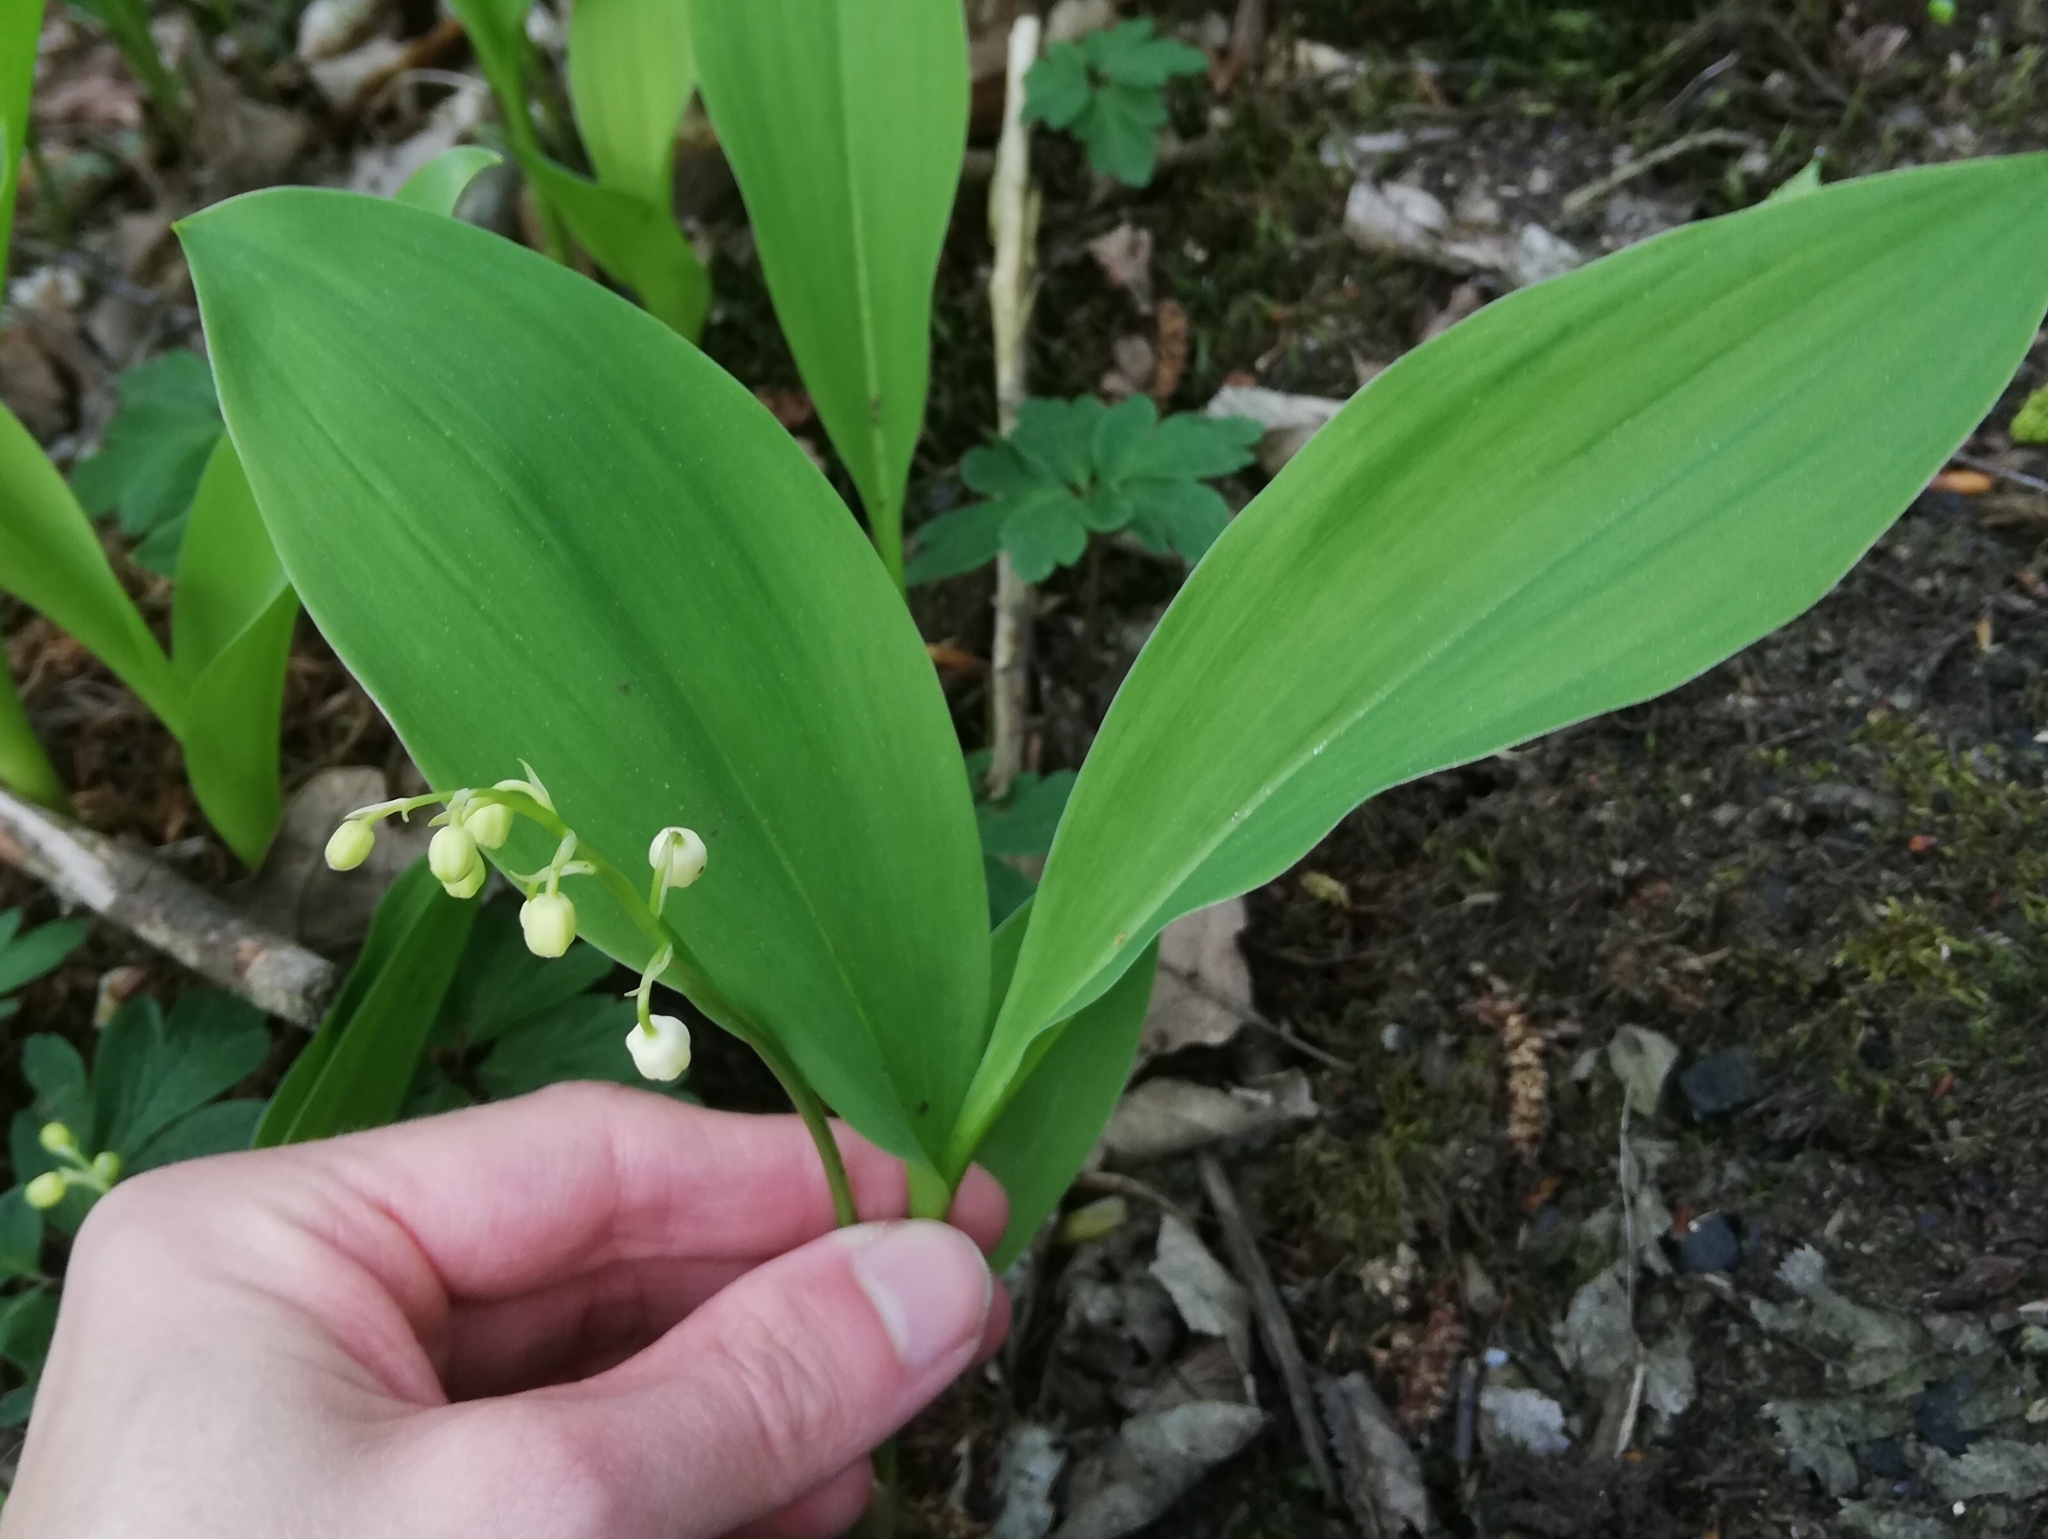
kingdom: Plantae
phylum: Tracheophyta
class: Liliopsida
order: Asparagales
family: Asparagaceae
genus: Convallaria
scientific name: Convallaria majalis
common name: Lily-of-the-valley
